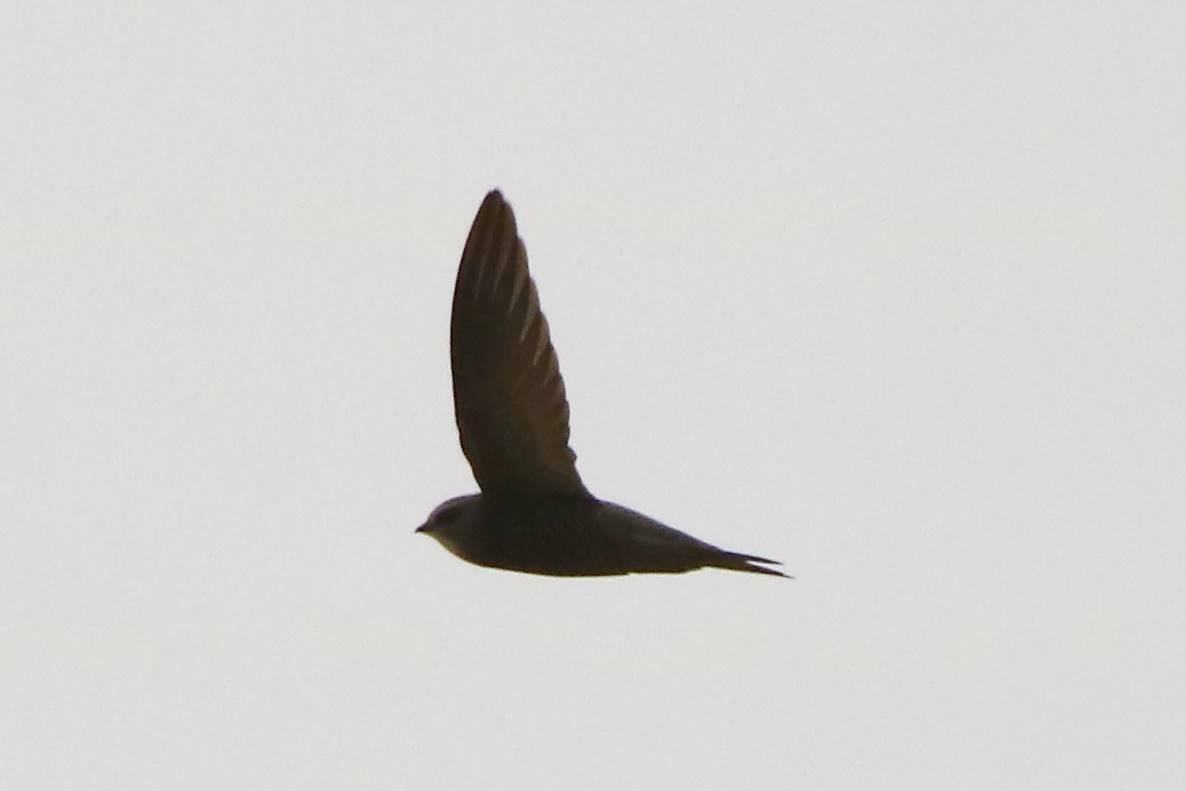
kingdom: Animalia
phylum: Chordata
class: Aves
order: Apodiformes
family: Apodidae
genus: Apus
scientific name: Apus pallidus
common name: Pallid swift
